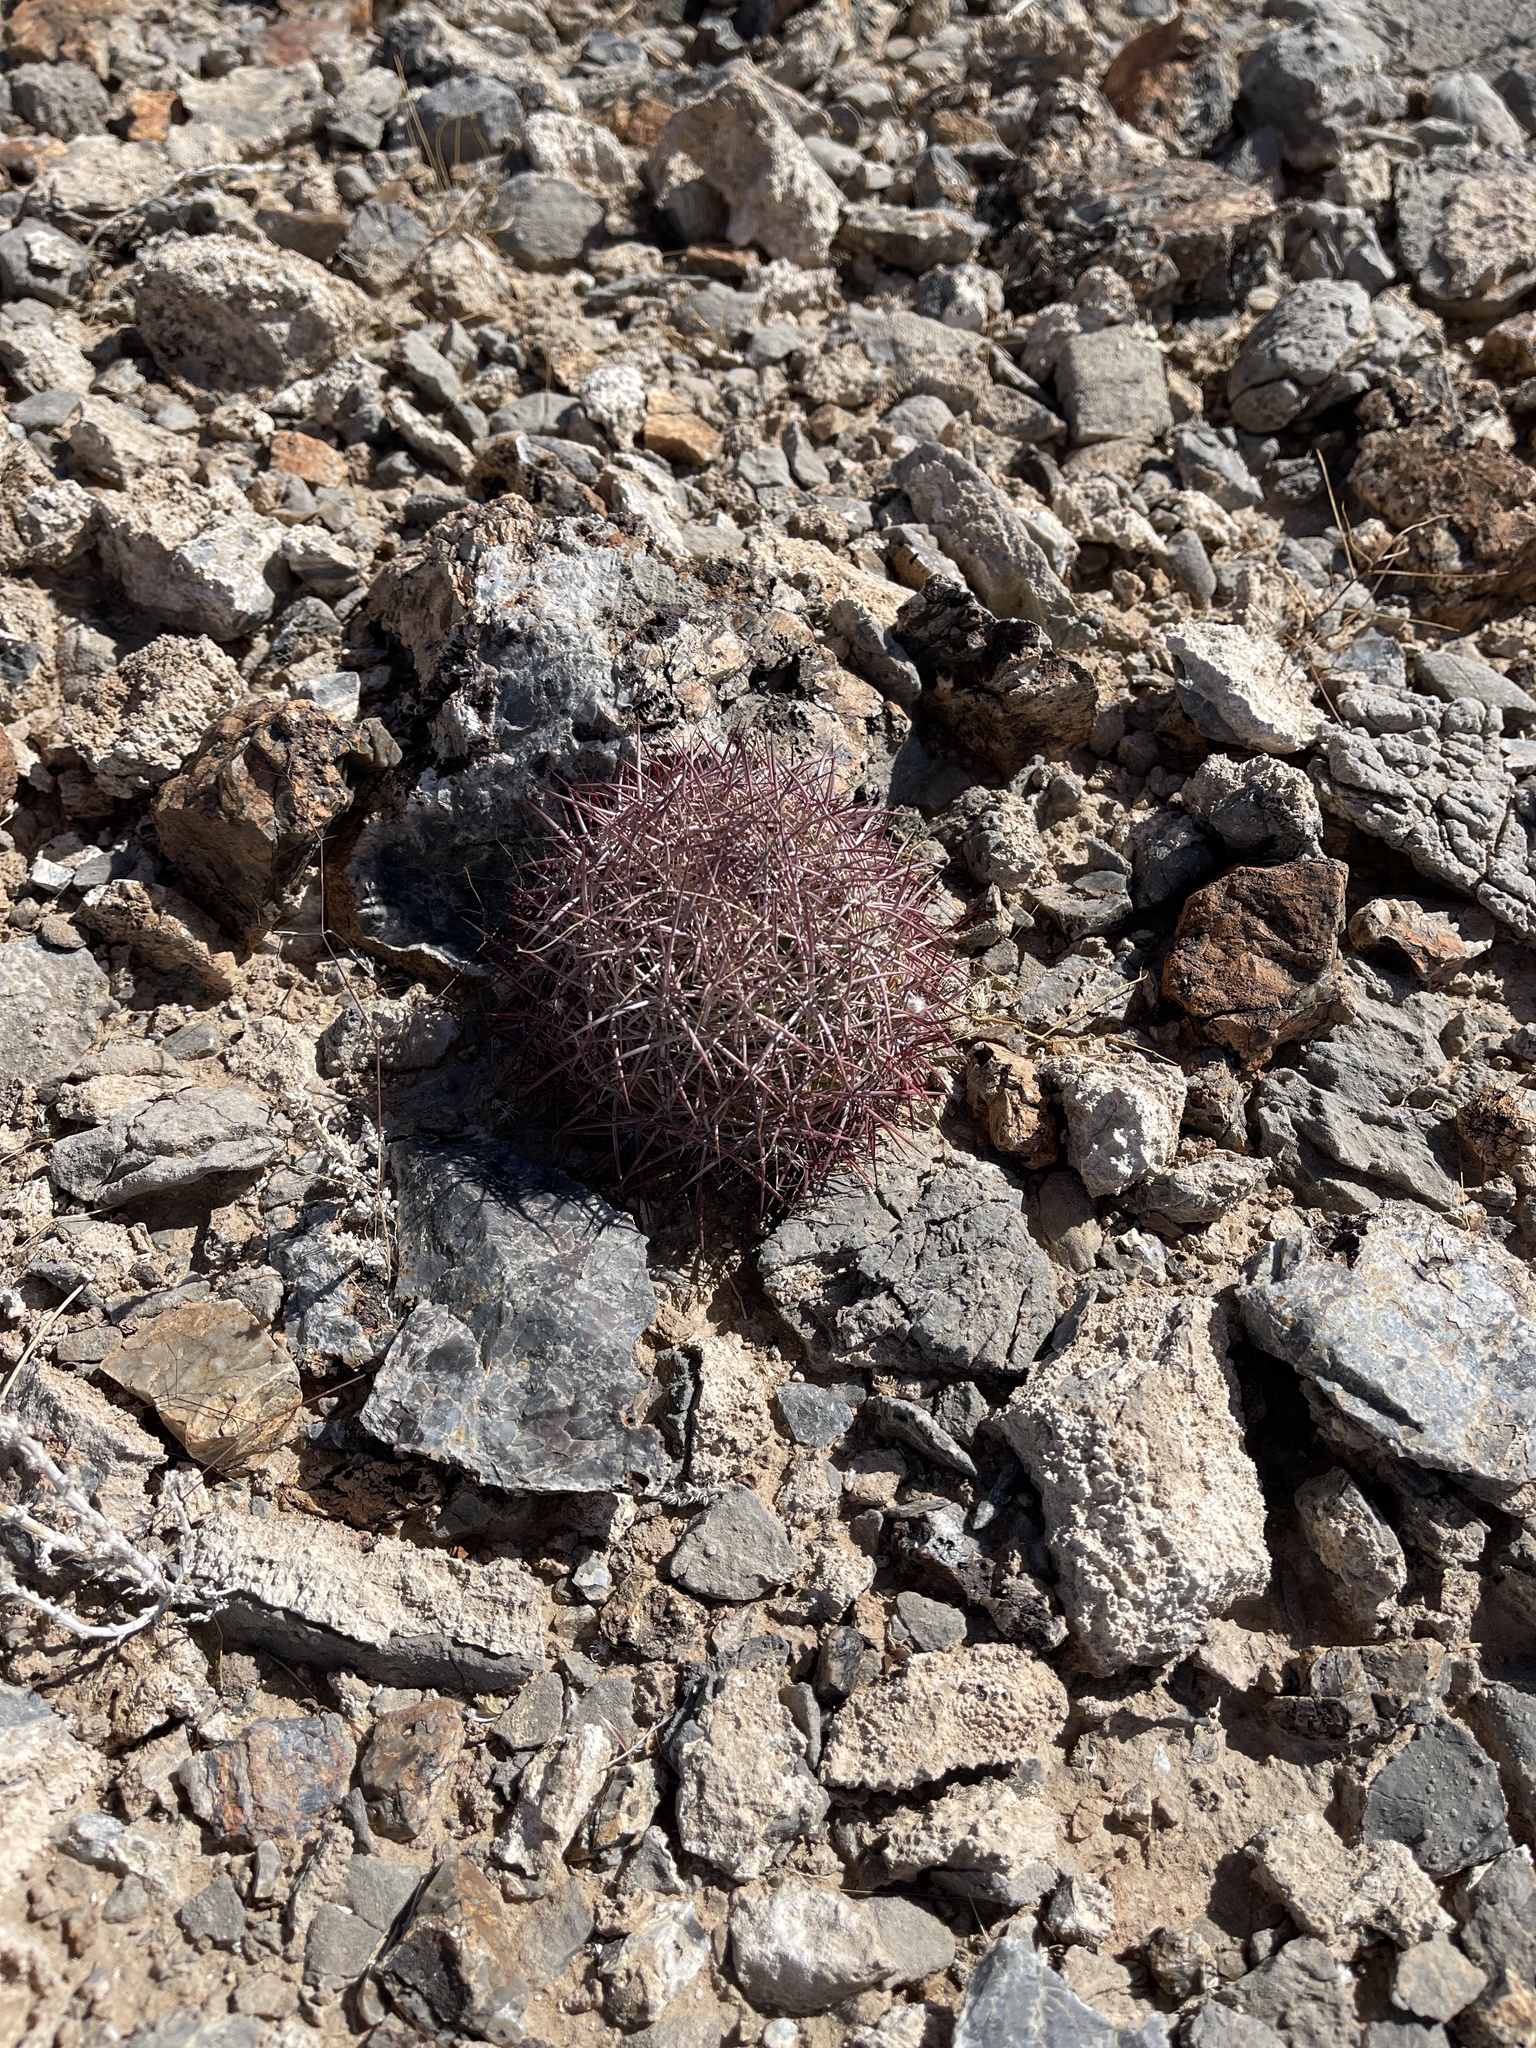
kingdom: Plantae
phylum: Tracheophyta
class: Magnoliopsida
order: Caryophyllales
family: Cactaceae
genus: Sclerocactus
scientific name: Sclerocactus johnsonii
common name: Eight-spine fishhook cactus
